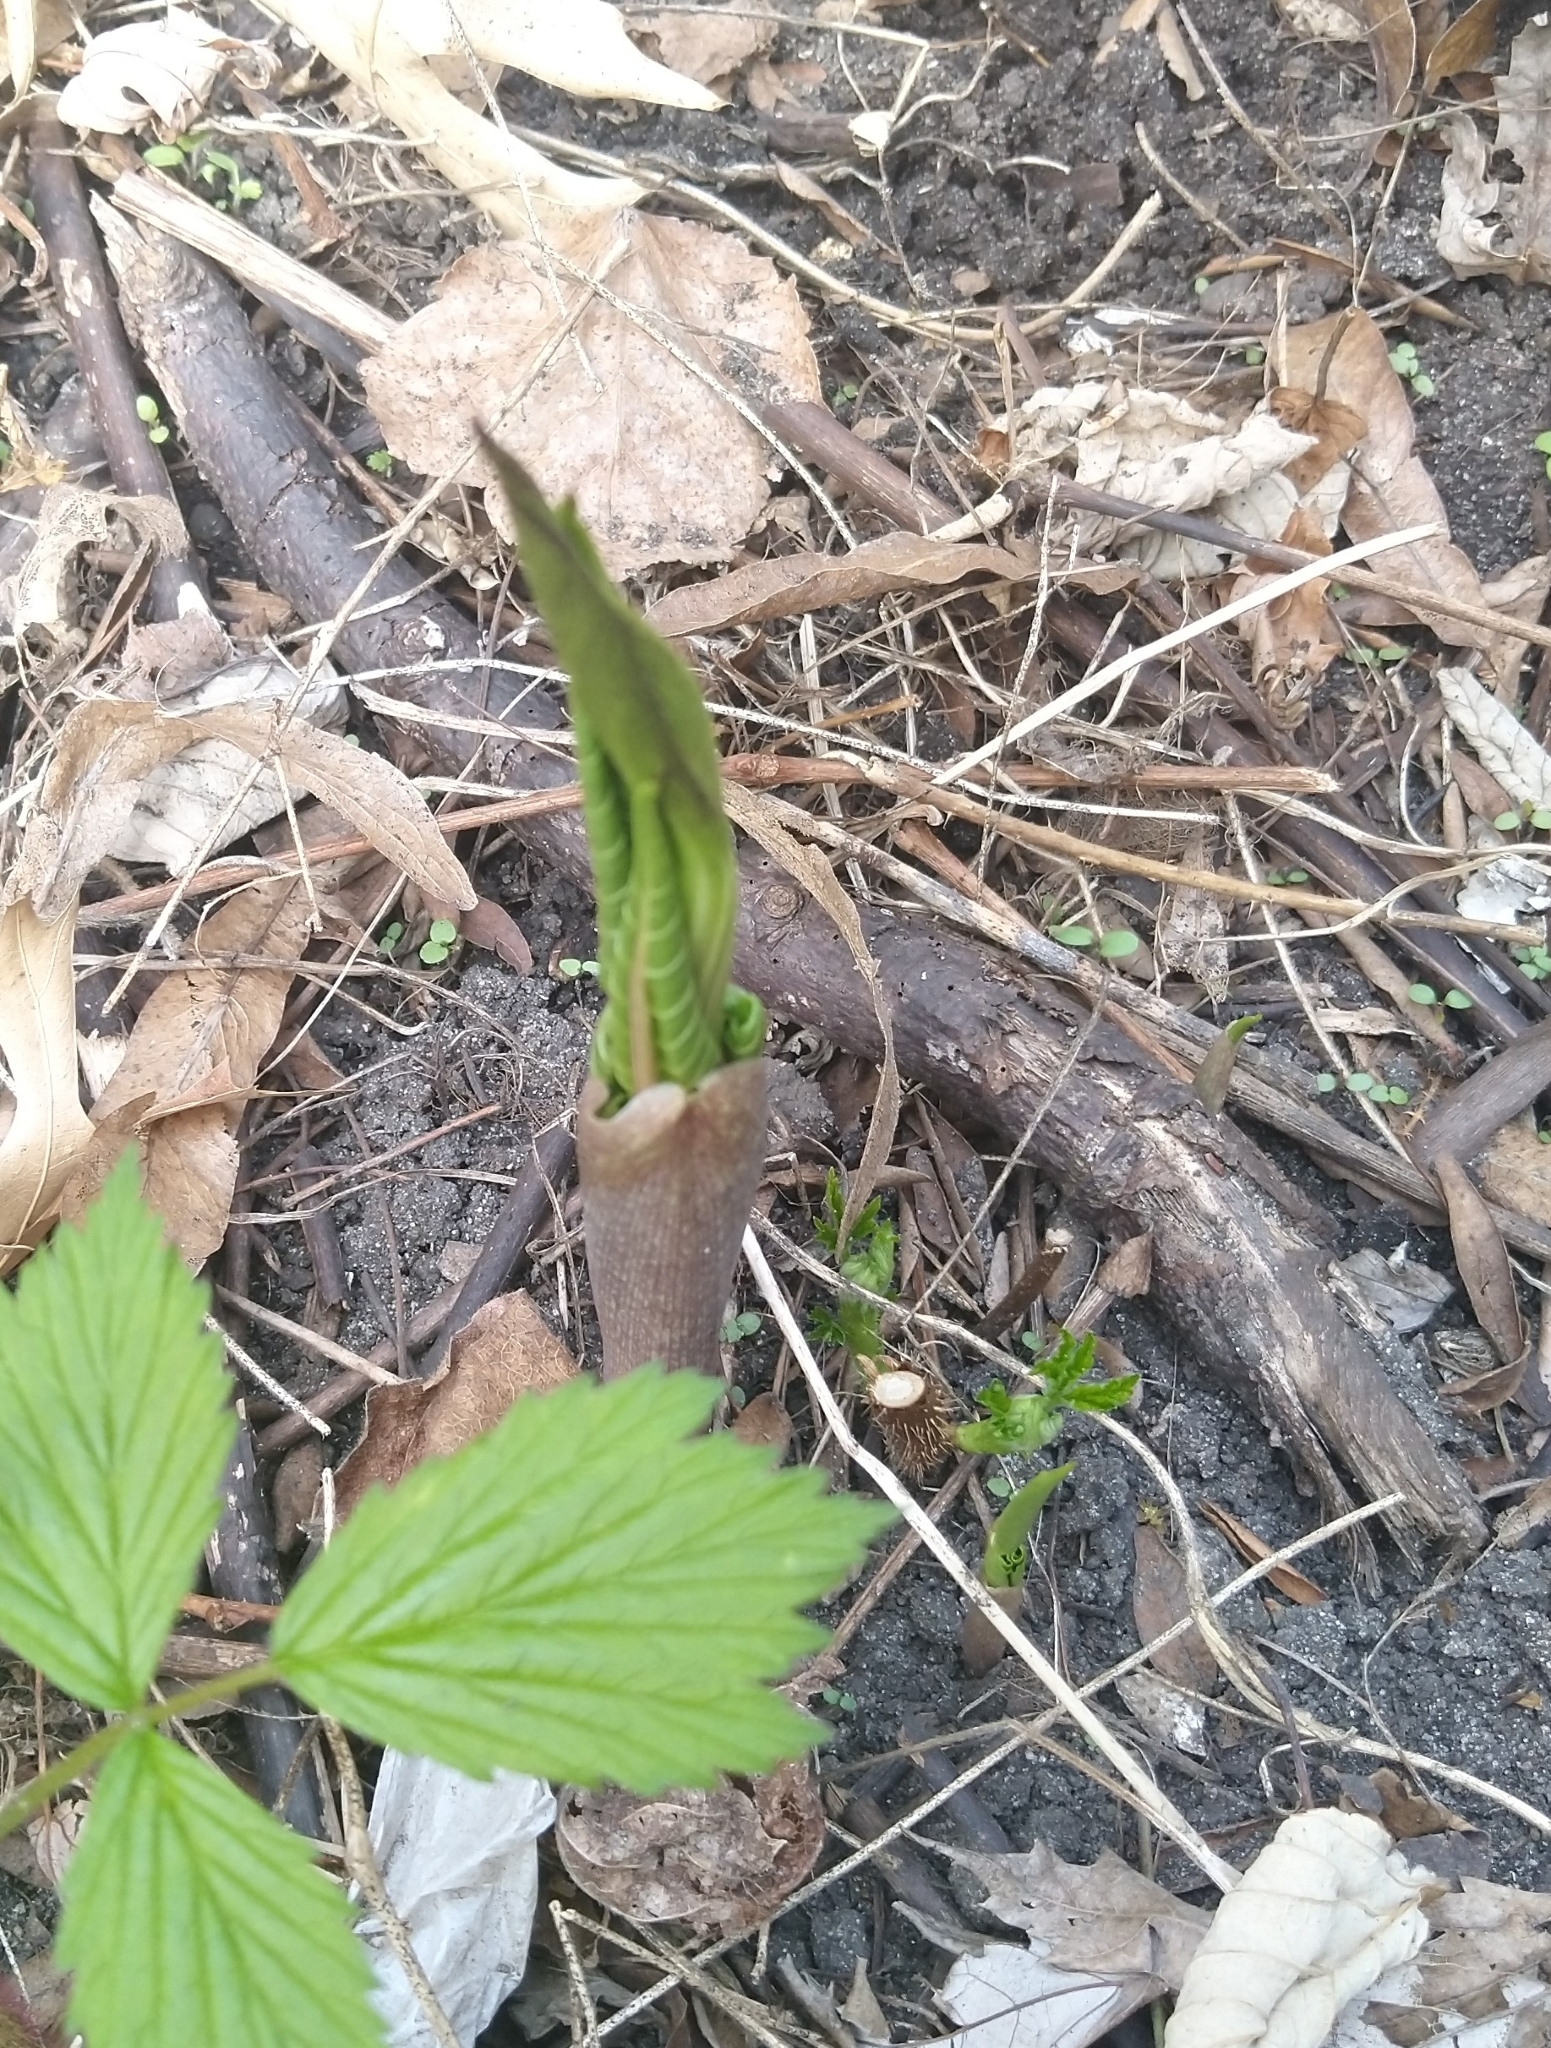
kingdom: Plantae
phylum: Tracheophyta
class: Liliopsida
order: Alismatales
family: Araceae
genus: Arisaema
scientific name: Arisaema triphyllum
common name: Jack-in-the-pulpit
